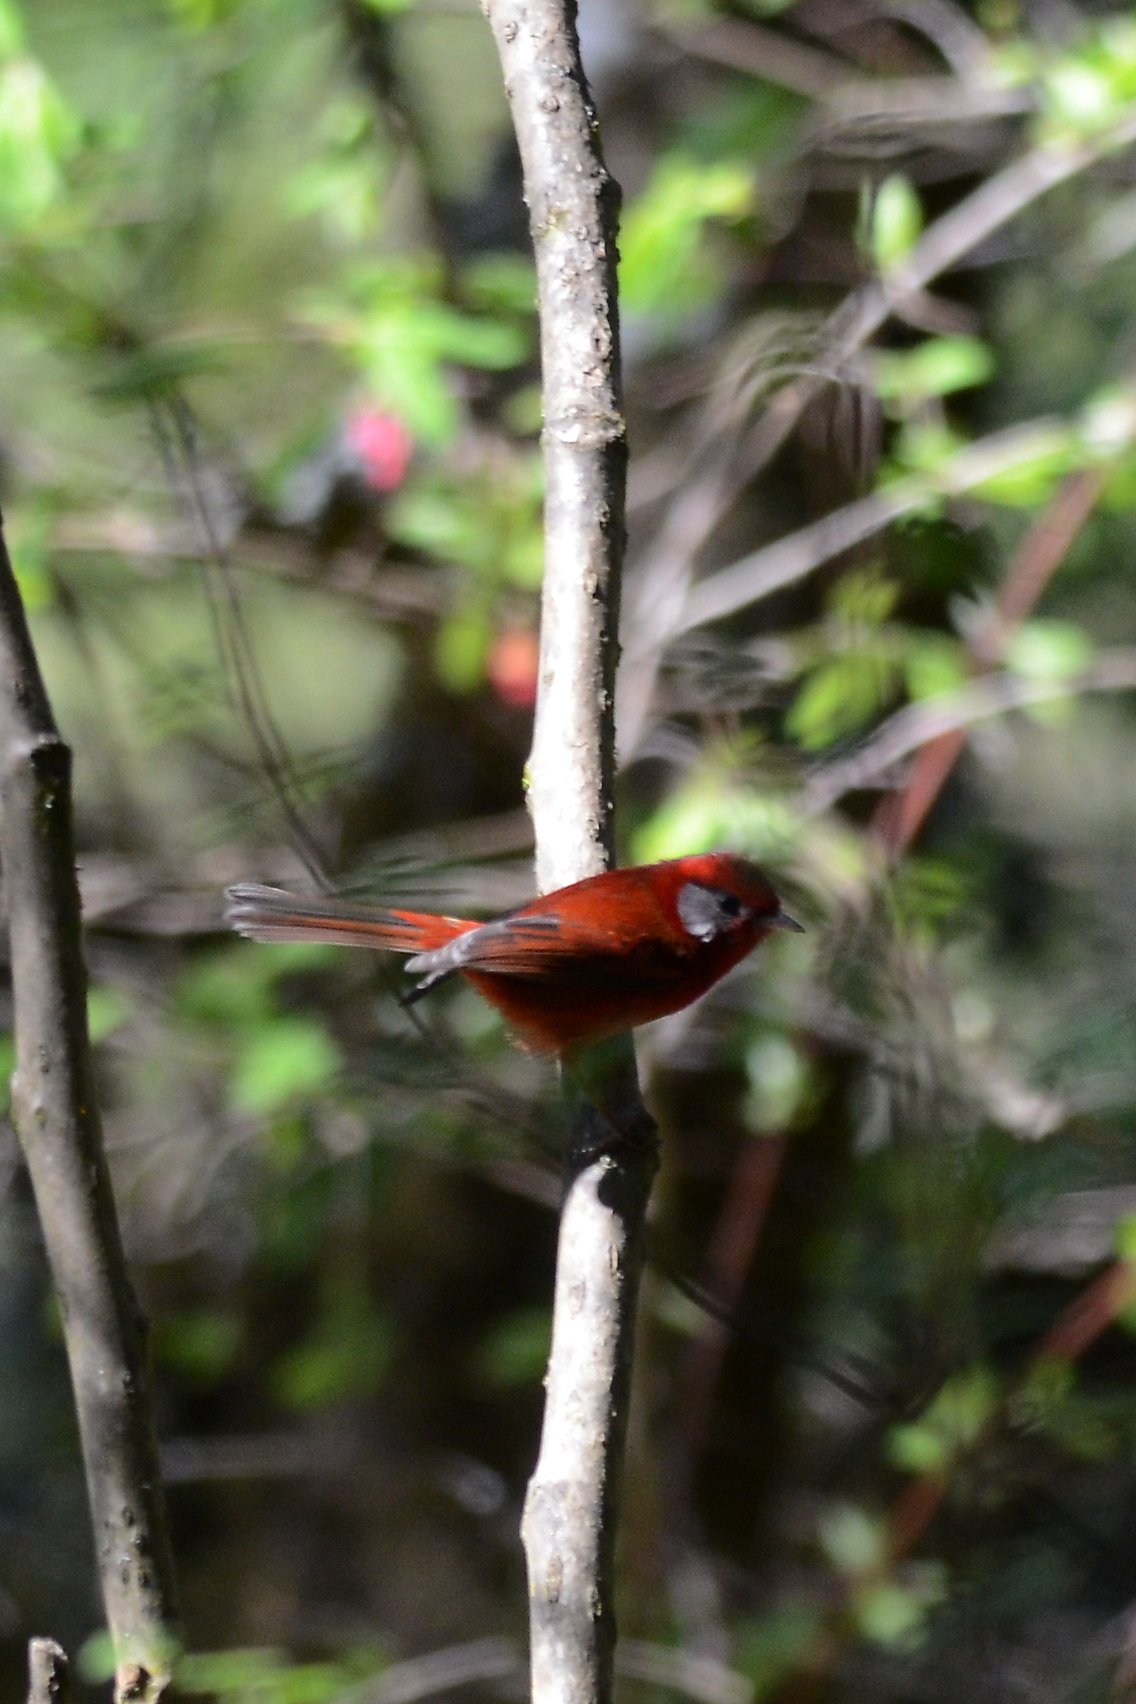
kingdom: Animalia
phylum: Chordata
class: Aves
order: Passeriformes
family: Parulidae
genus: Cardellina
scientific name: Cardellina rubra
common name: Red warbler
